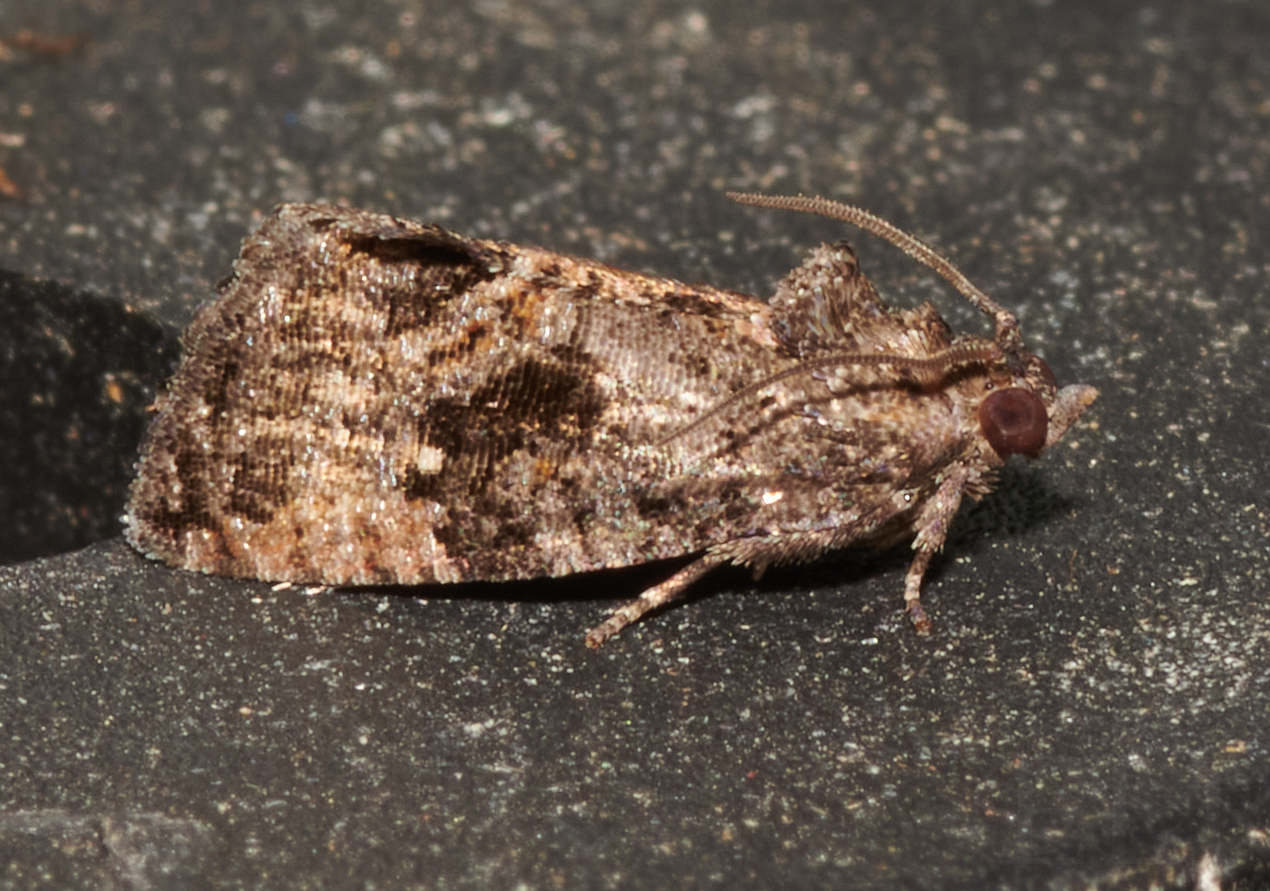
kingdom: Animalia
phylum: Arthropoda
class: Insecta
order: Lepidoptera
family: Tortricidae
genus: Gymnandrosoma
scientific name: Gymnandrosoma punctidiscanum
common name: Dotted ecdytolopha moth
